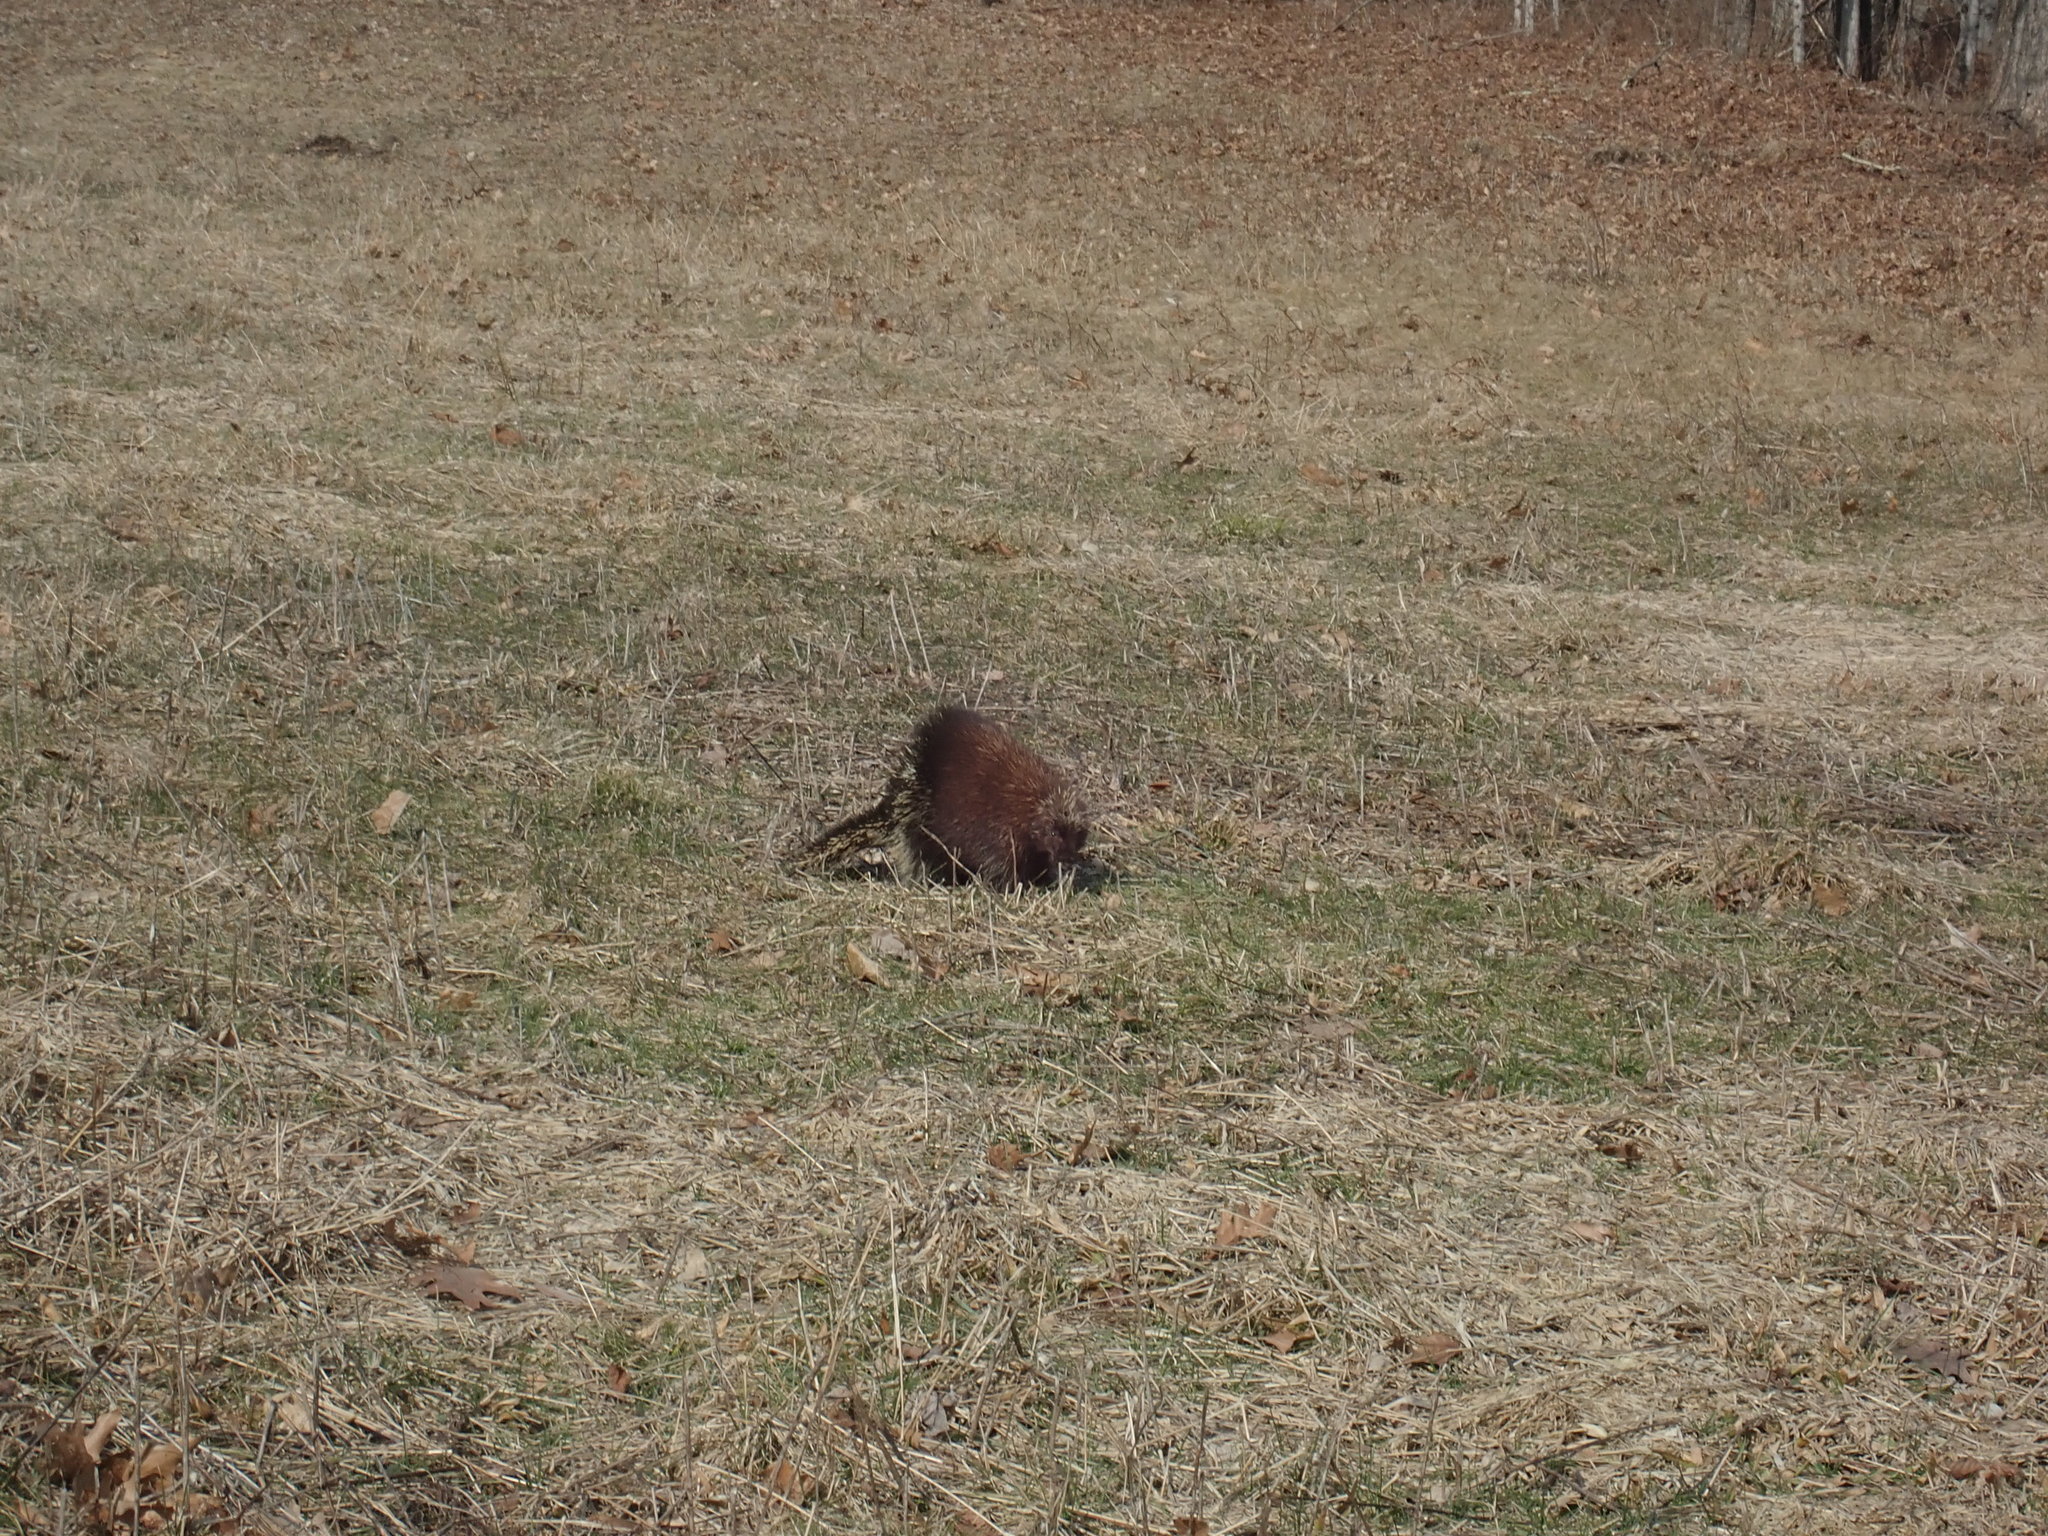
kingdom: Animalia
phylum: Chordata
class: Mammalia
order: Rodentia
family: Erethizontidae
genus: Erethizon
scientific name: Erethizon dorsatus
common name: North american porcupine
